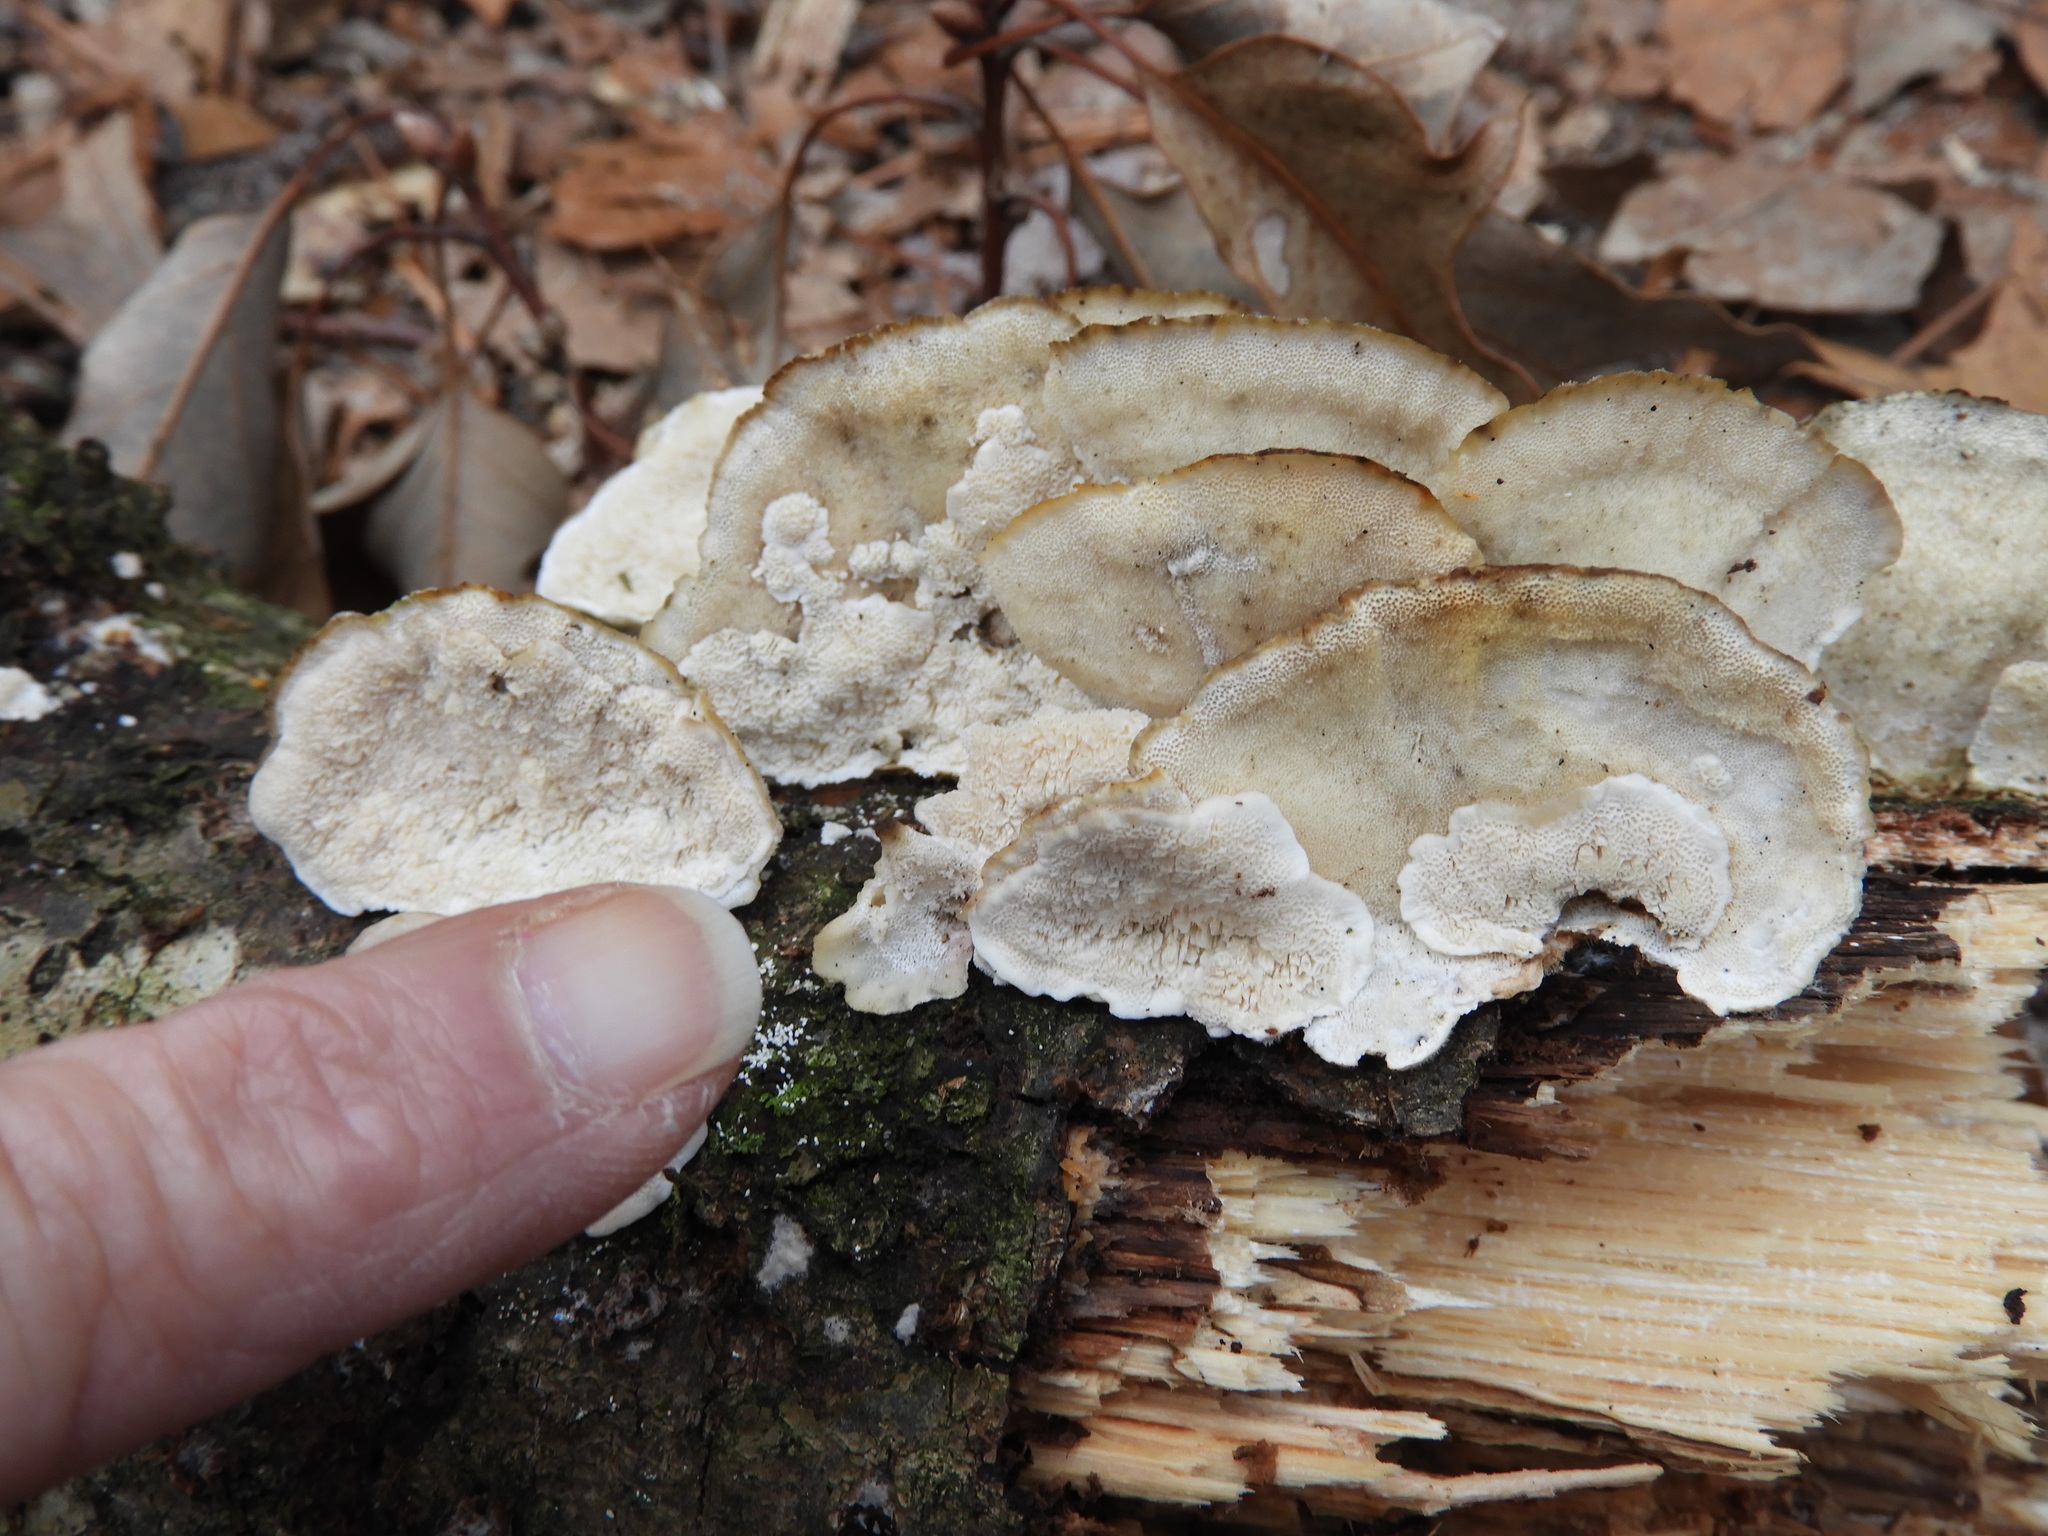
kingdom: Fungi
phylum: Basidiomycota
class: Agaricomycetes
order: Polyporales
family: Polyporaceae
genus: Trametes
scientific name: Trametes versicolor
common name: Turkeytail
